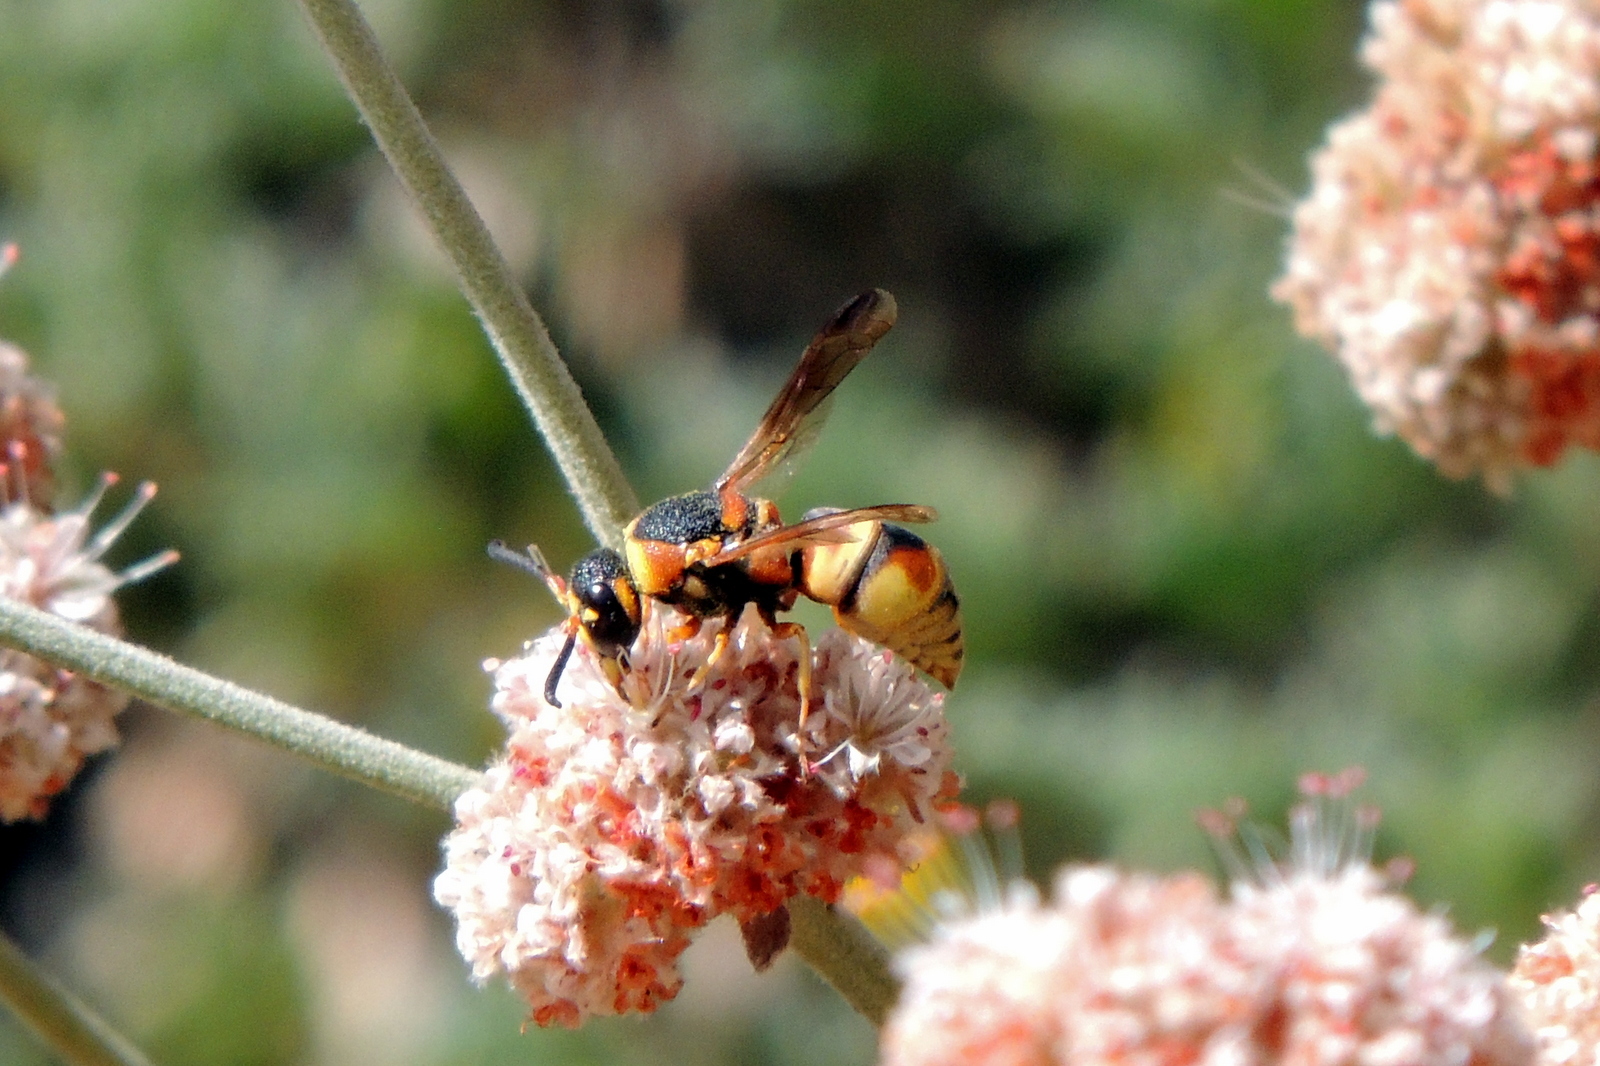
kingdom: Animalia
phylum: Arthropoda
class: Insecta
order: Hymenoptera
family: Eumenidae
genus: Euodynerus
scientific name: Euodynerus hidalgo
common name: Wasp
